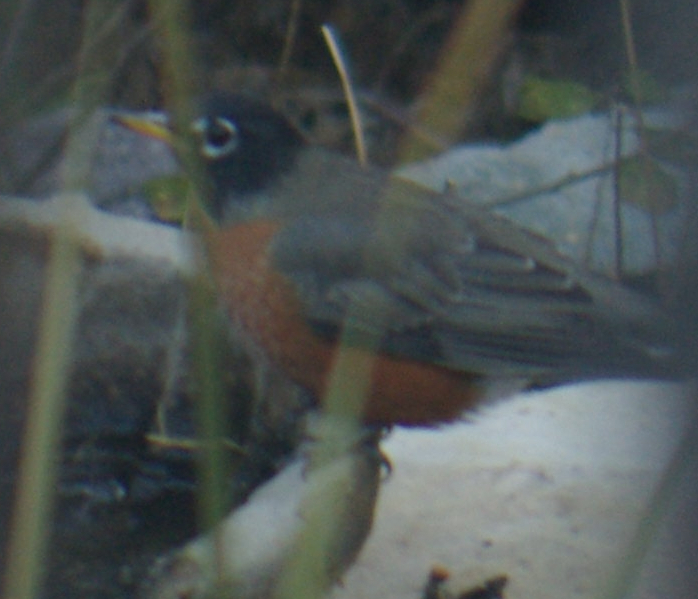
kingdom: Animalia
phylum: Chordata
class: Aves
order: Passeriformes
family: Turdidae
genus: Turdus
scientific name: Turdus migratorius
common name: American robin
